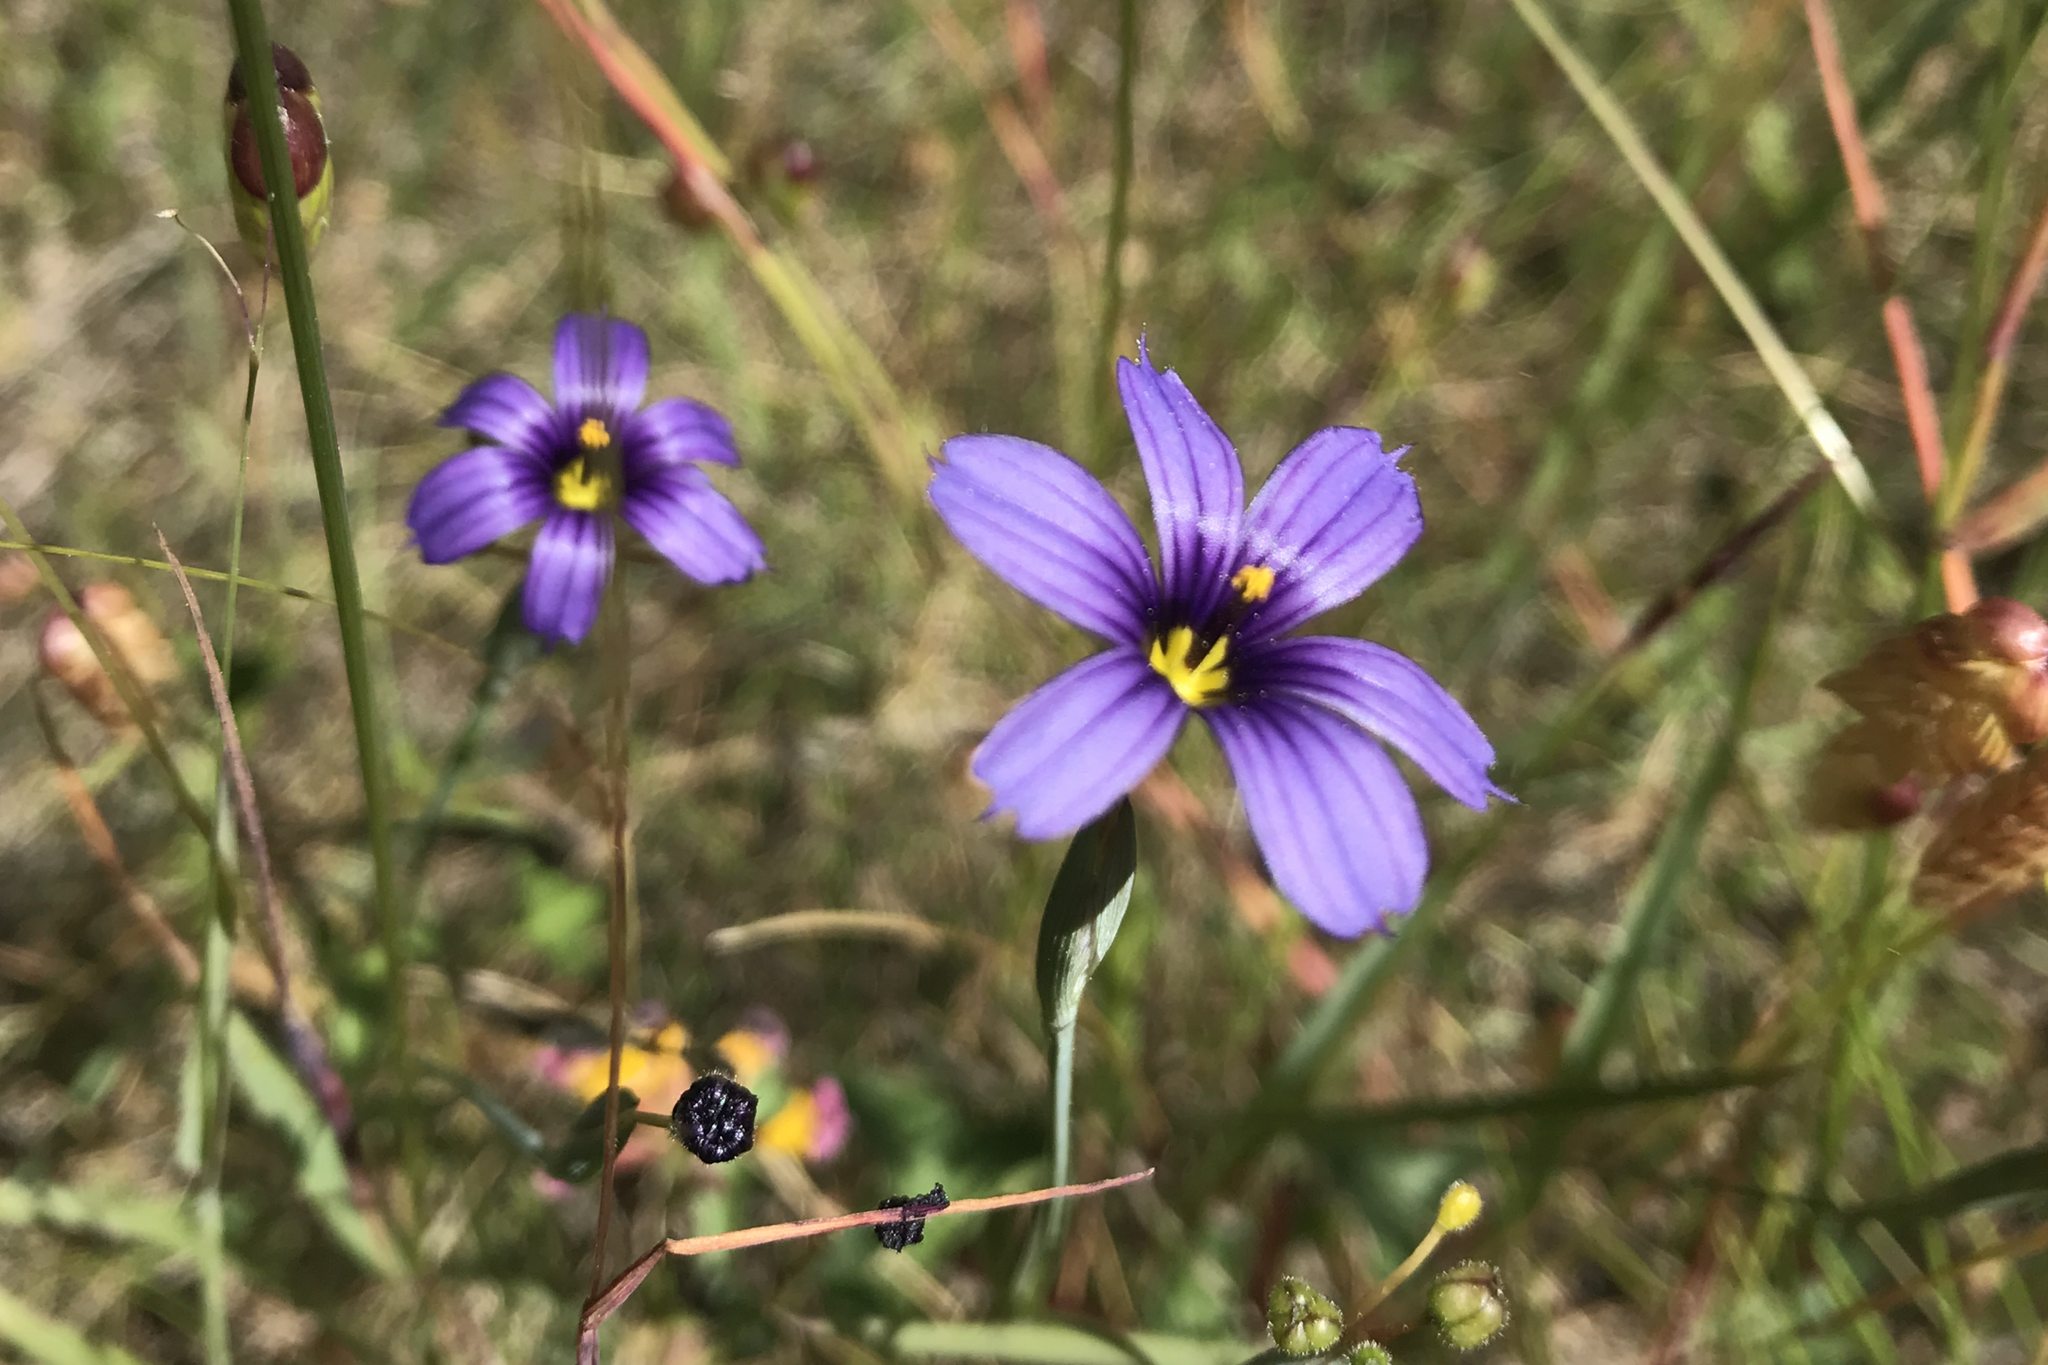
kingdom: Plantae
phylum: Tracheophyta
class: Liliopsida
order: Asparagales
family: Iridaceae
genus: Sisyrinchium
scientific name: Sisyrinchium bellum
